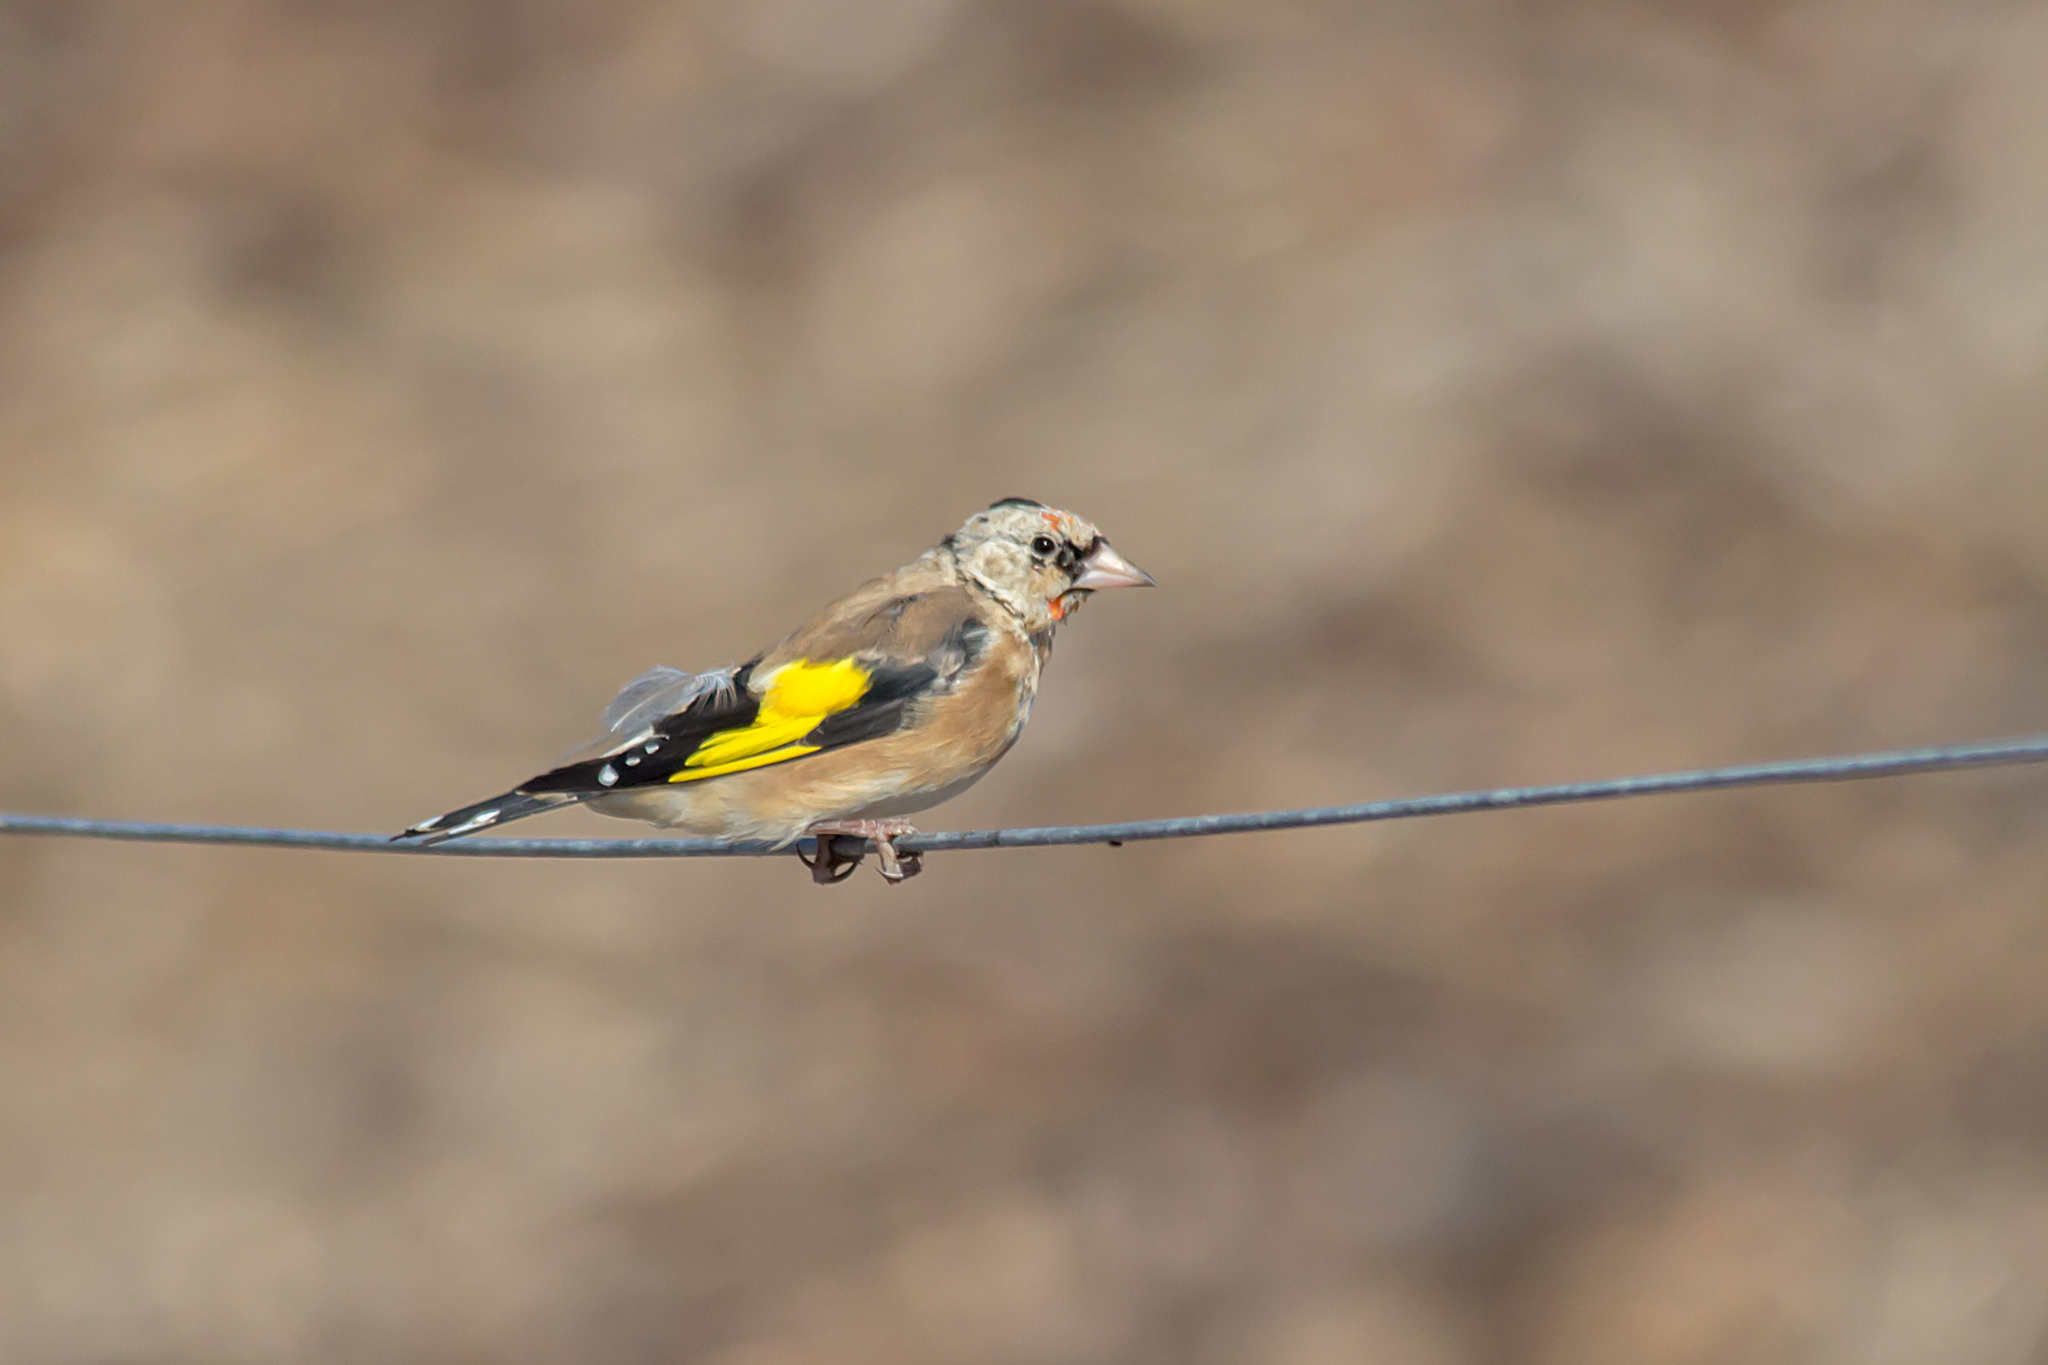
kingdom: Animalia
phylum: Chordata
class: Aves
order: Passeriformes
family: Fringillidae
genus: Carduelis
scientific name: Carduelis carduelis
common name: European goldfinch
